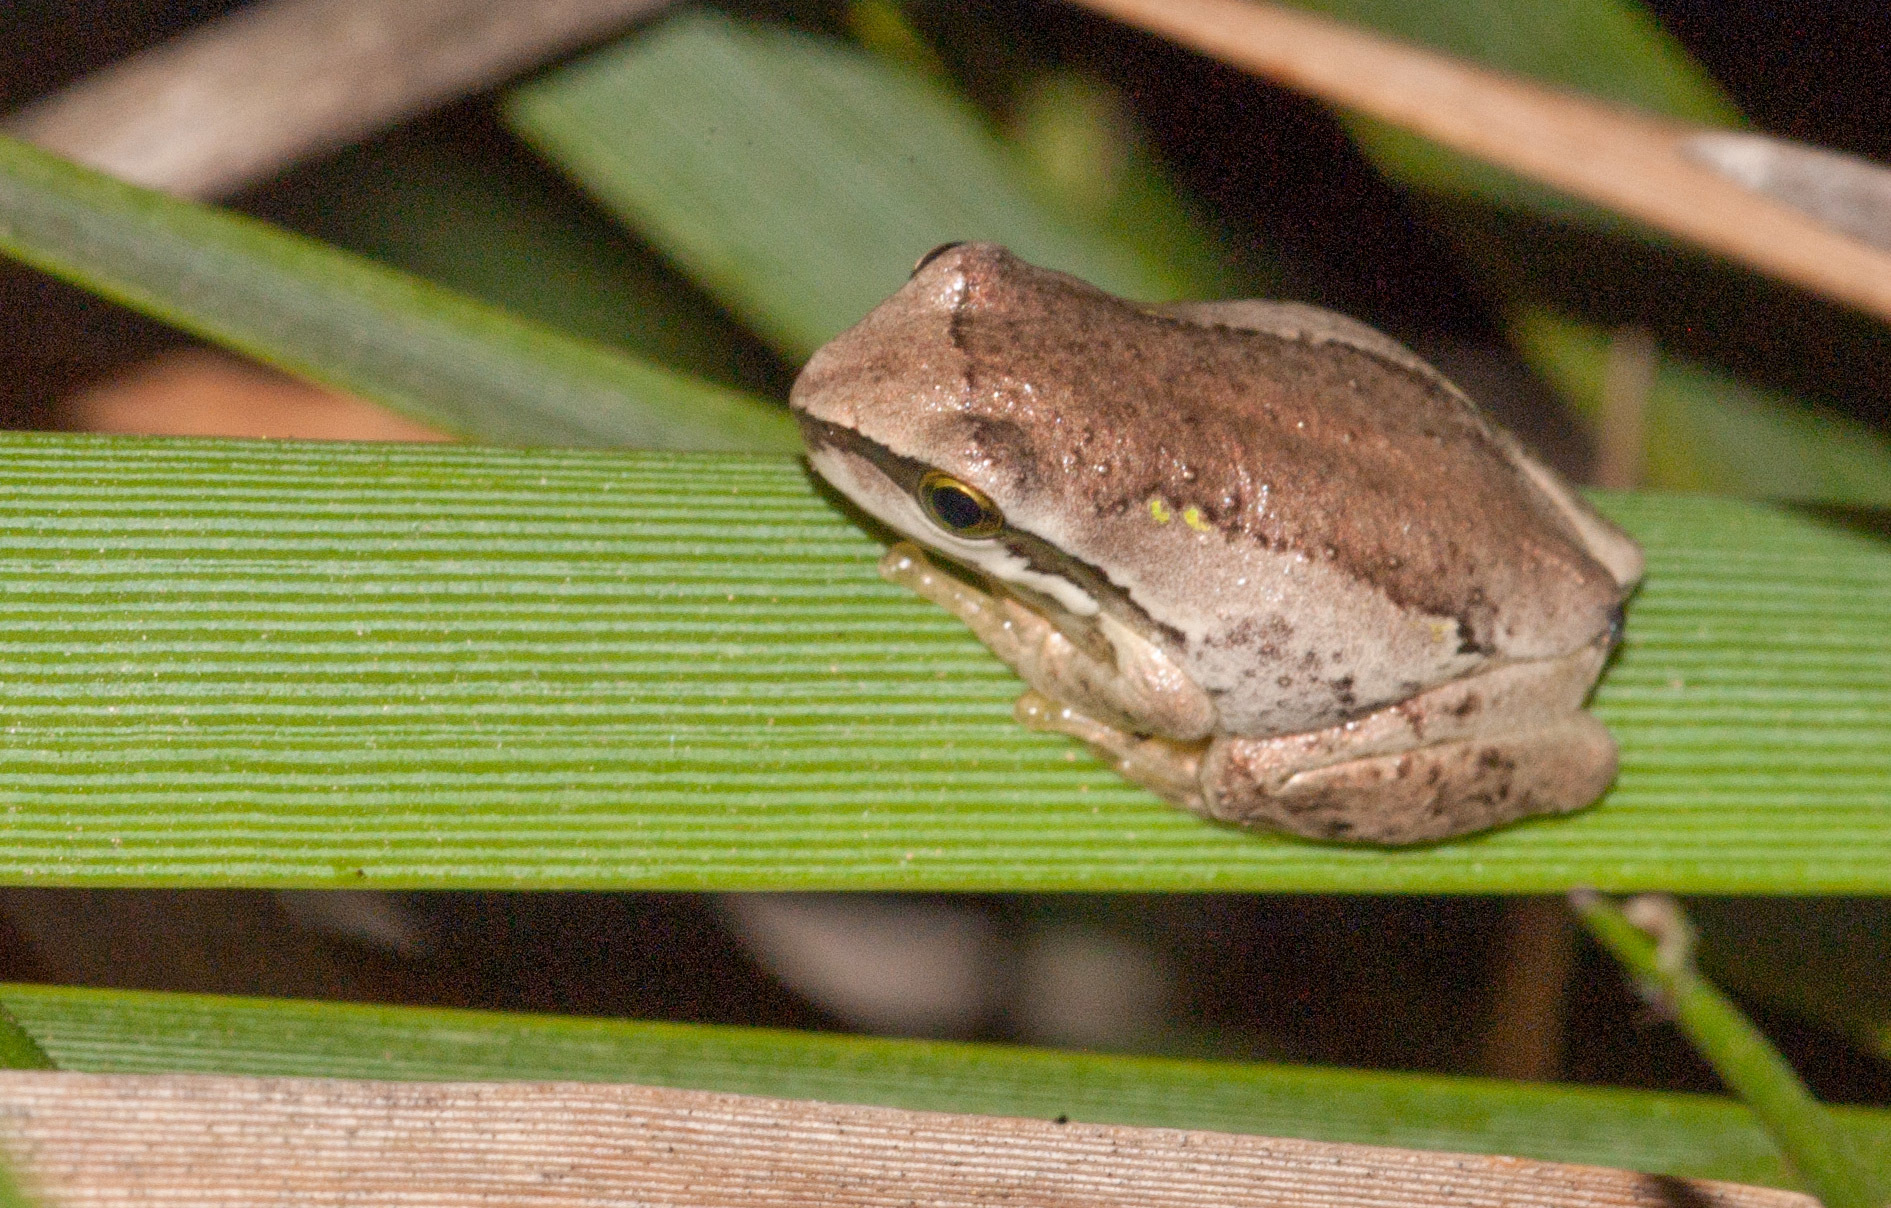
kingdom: Animalia
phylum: Chordata
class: Amphibia
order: Anura
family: Pelodryadidae
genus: Litoria
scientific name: Litoria ewingii
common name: Southern brown tree frog
